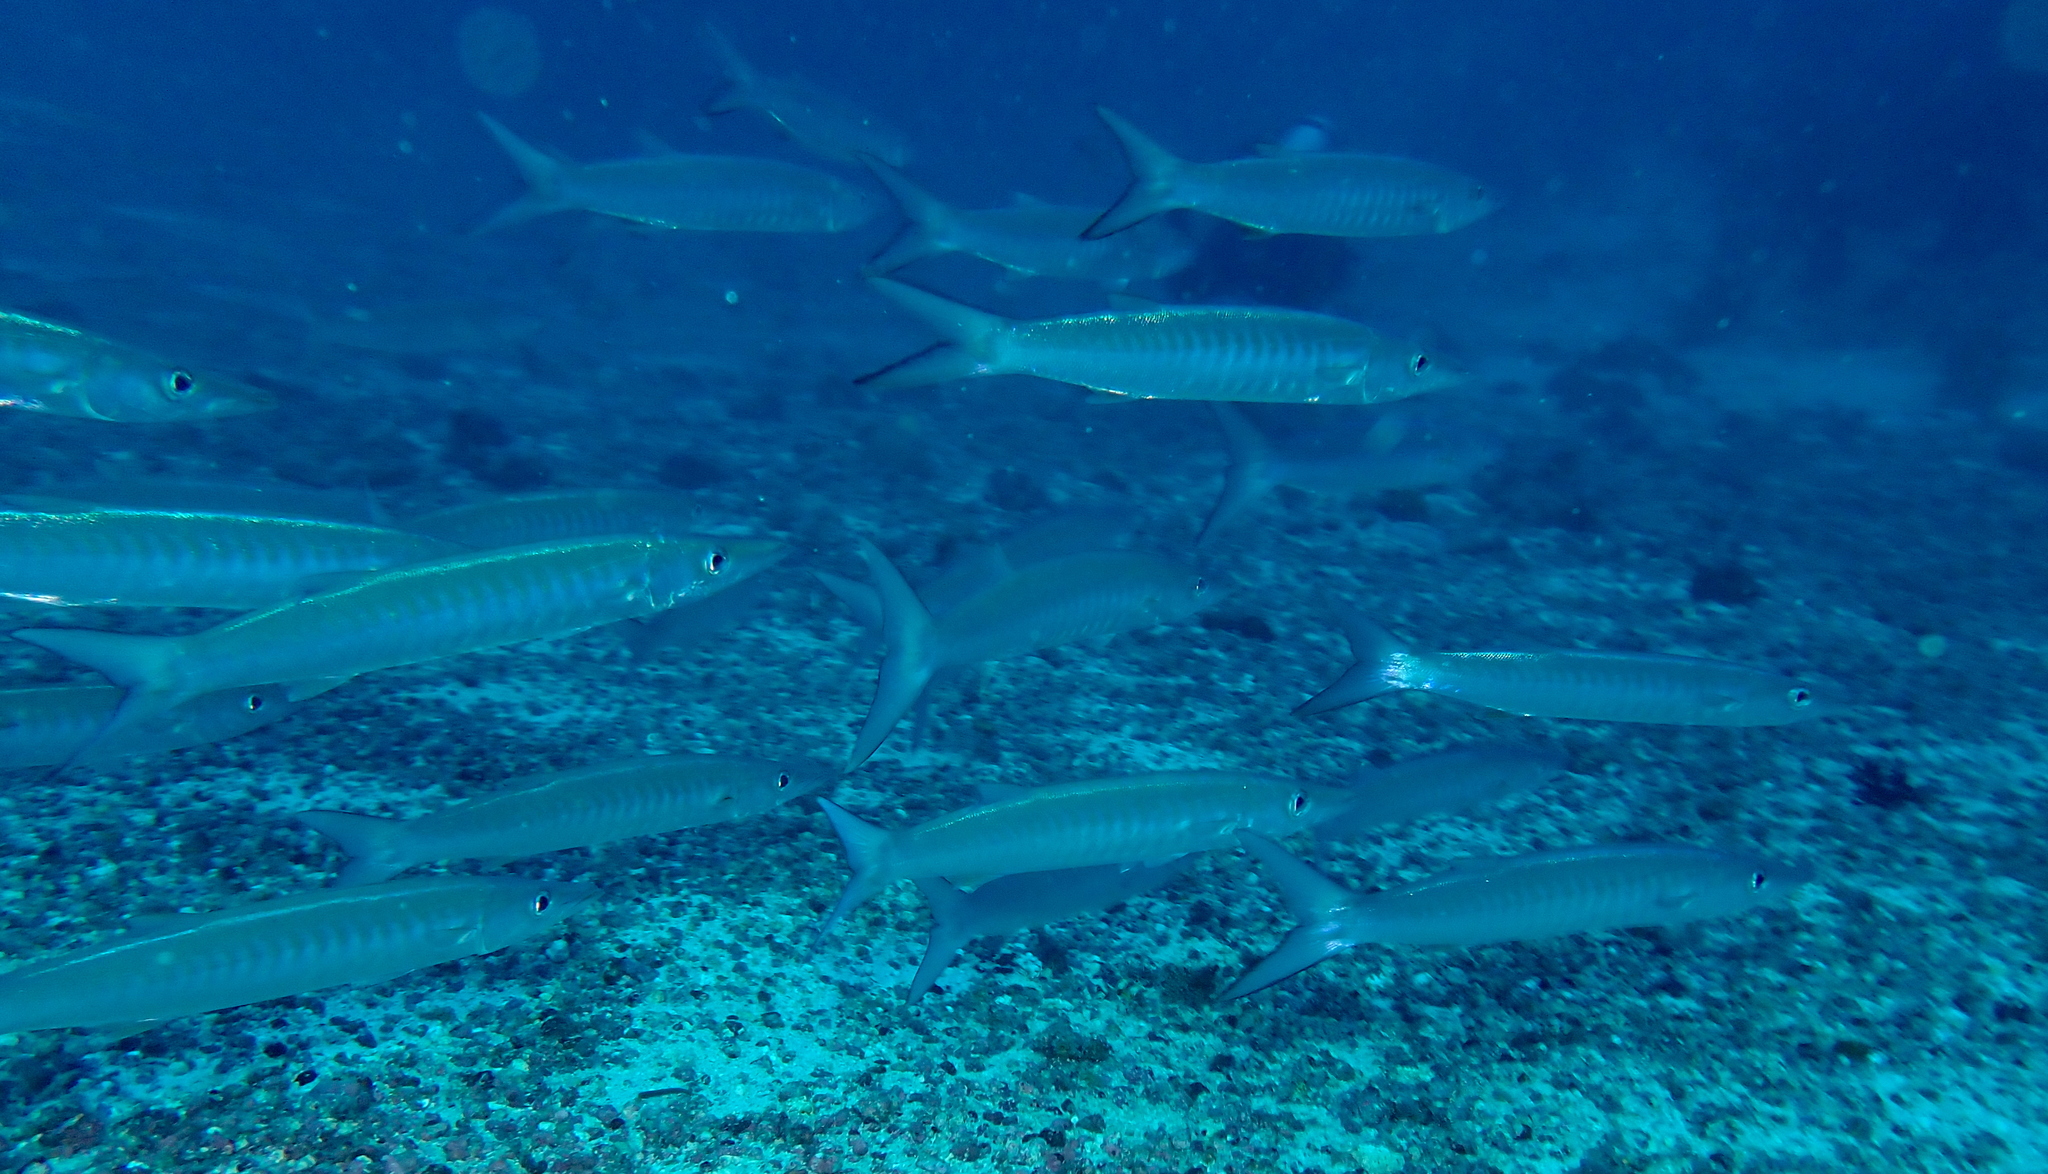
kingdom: Animalia
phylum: Chordata
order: Perciformes
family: Sphyraenidae
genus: Sphyraena
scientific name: Sphyraena qenie
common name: Blackfin barracuda
